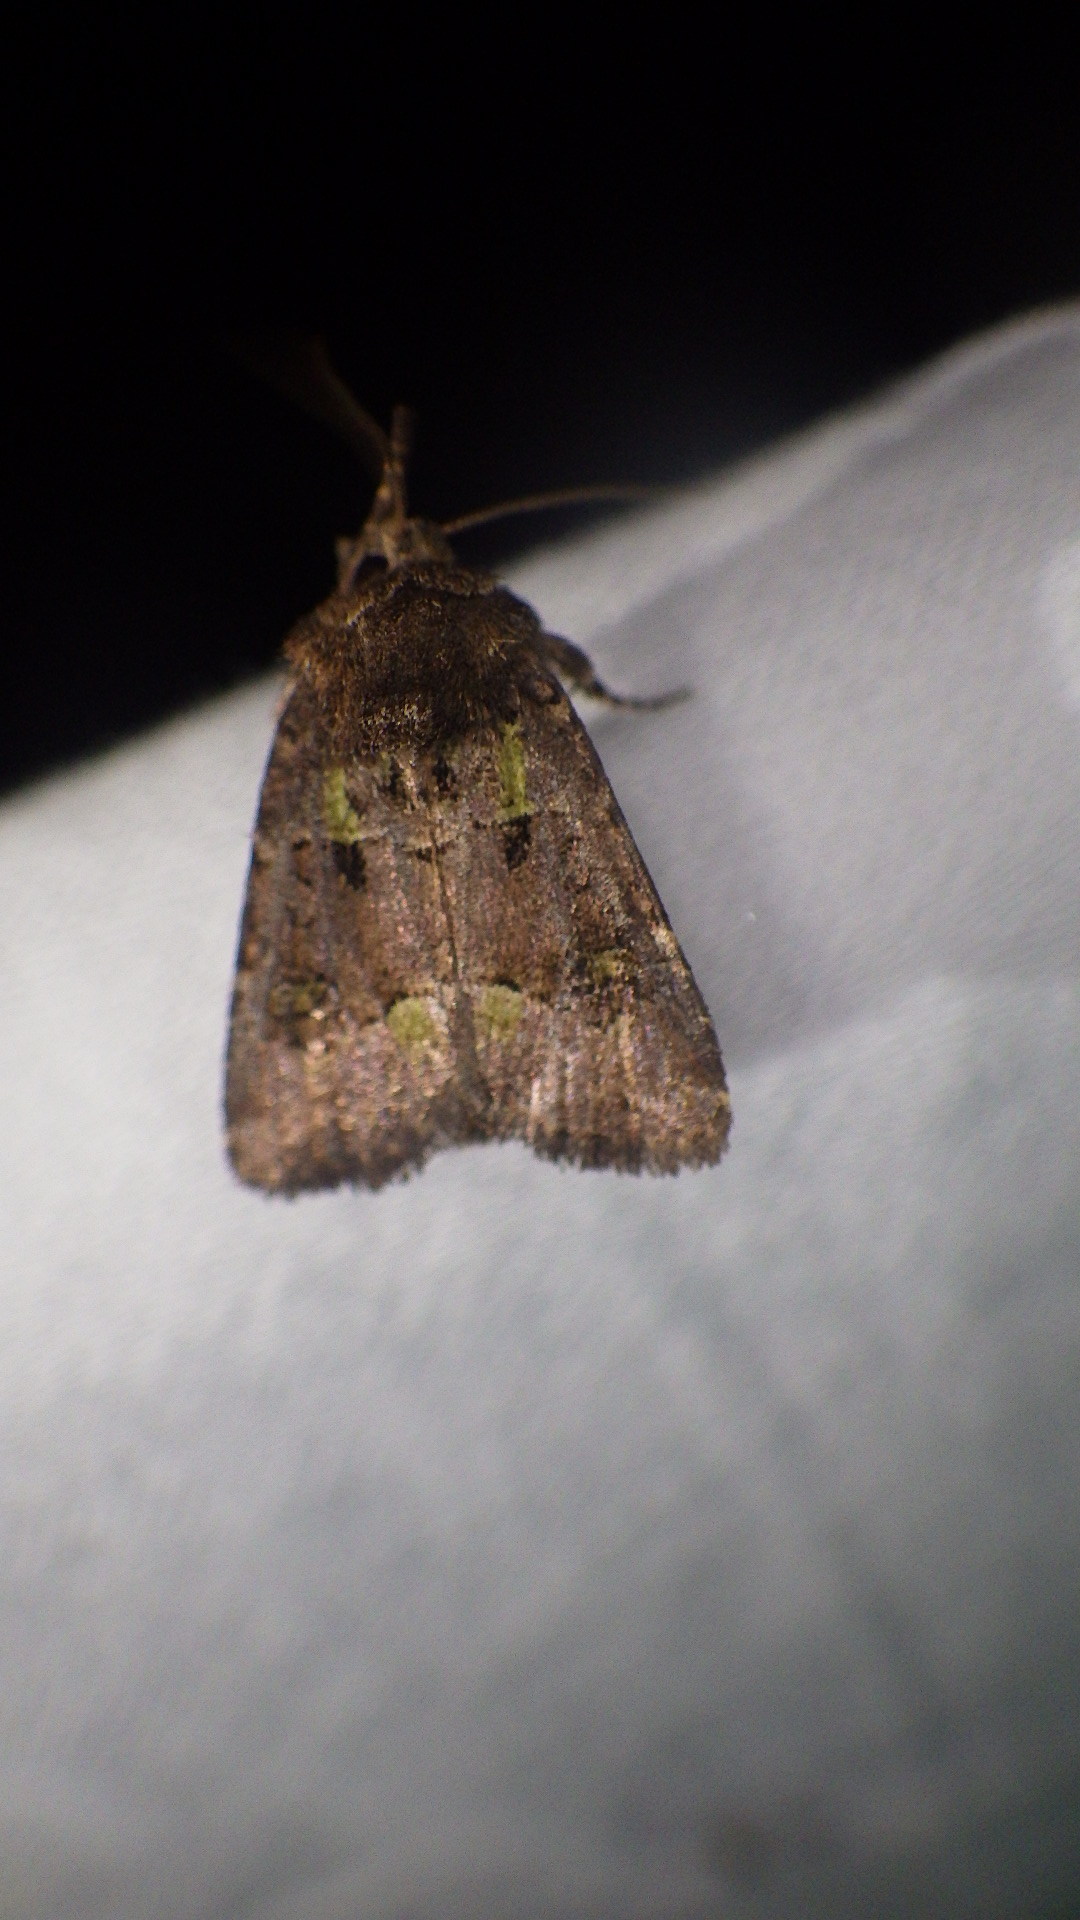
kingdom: Animalia
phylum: Arthropoda
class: Insecta
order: Lepidoptera
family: Noctuidae
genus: Lacinipolia
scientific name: Lacinipolia renigera
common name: Kidney-spotted minor
